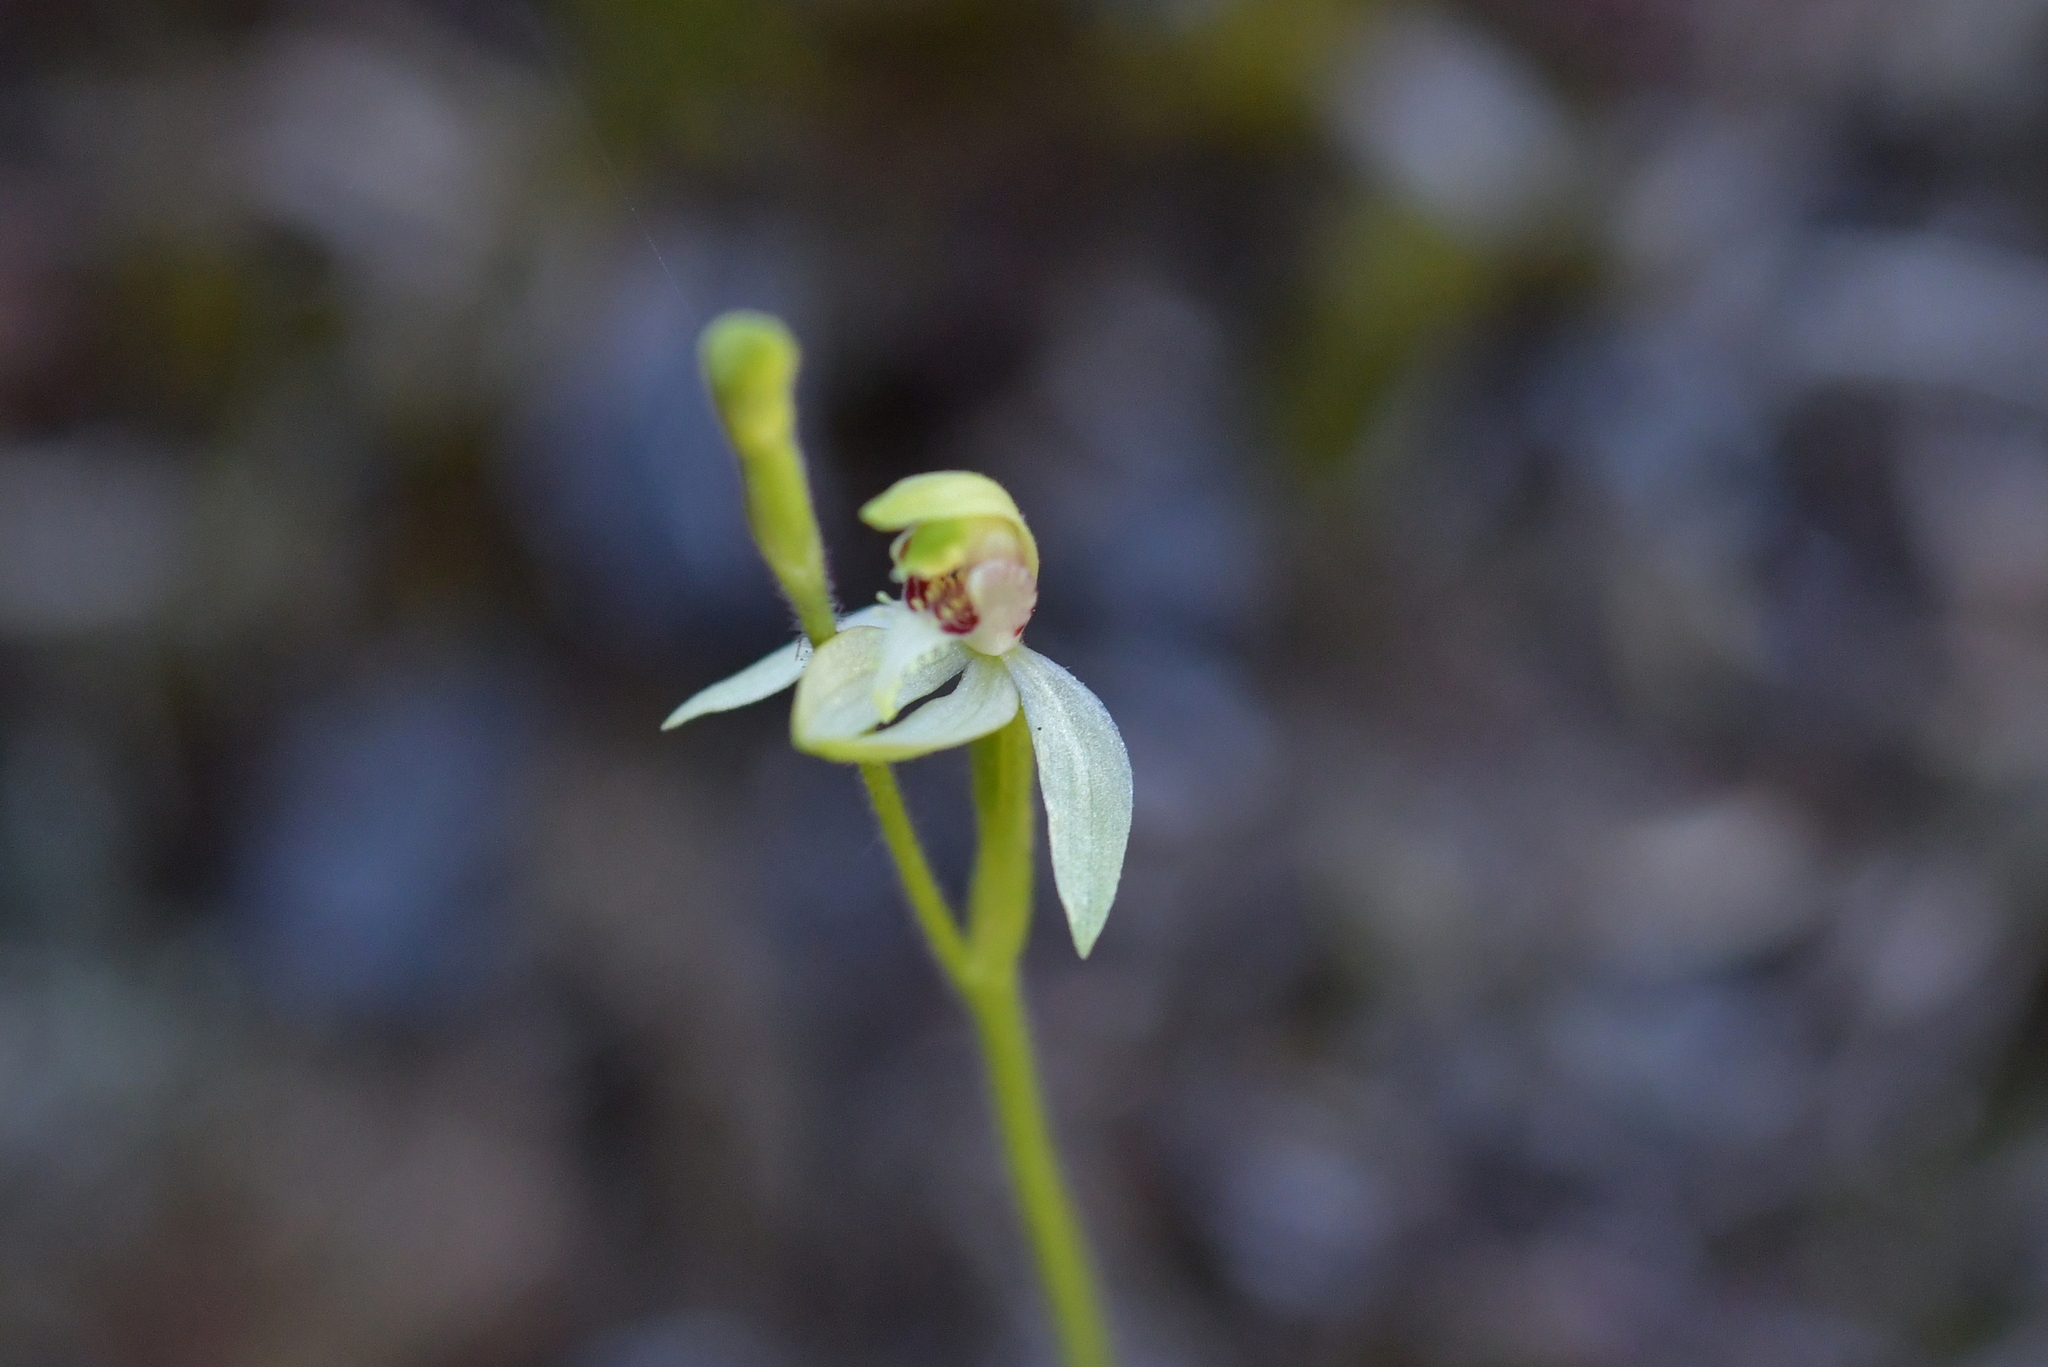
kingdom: Plantae
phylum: Tracheophyta
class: Liliopsida
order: Asparagales
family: Orchidaceae
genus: Caladenia
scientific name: Caladenia chlorostyla
